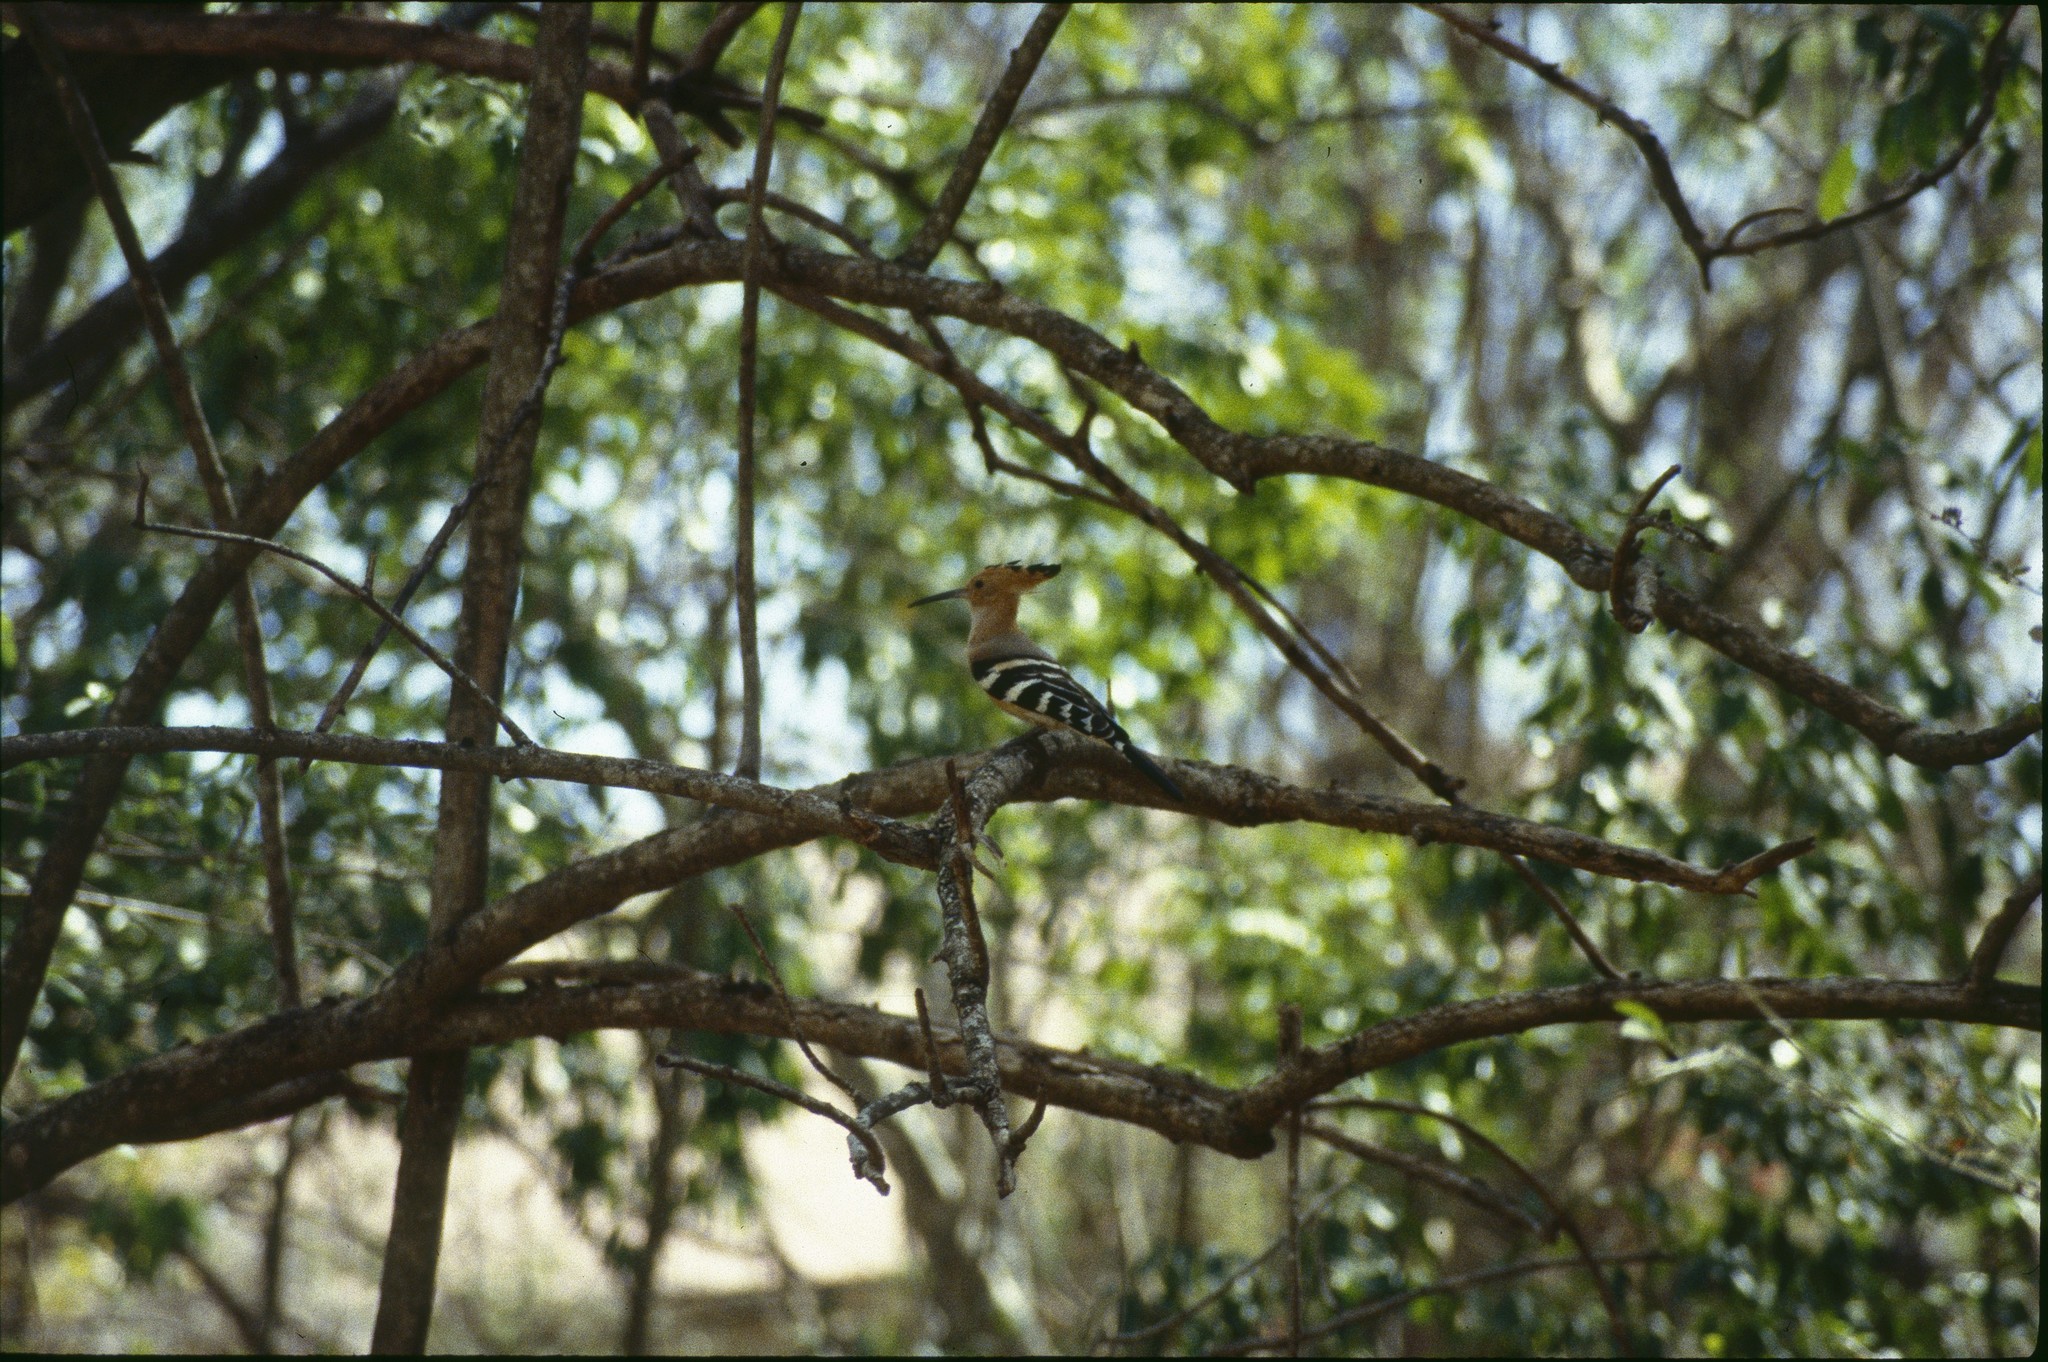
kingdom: Animalia
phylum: Chordata
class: Aves
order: Bucerotiformes
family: Upupidae
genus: Upupa
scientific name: Upupa marginata
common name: Madagascar hoopoe
